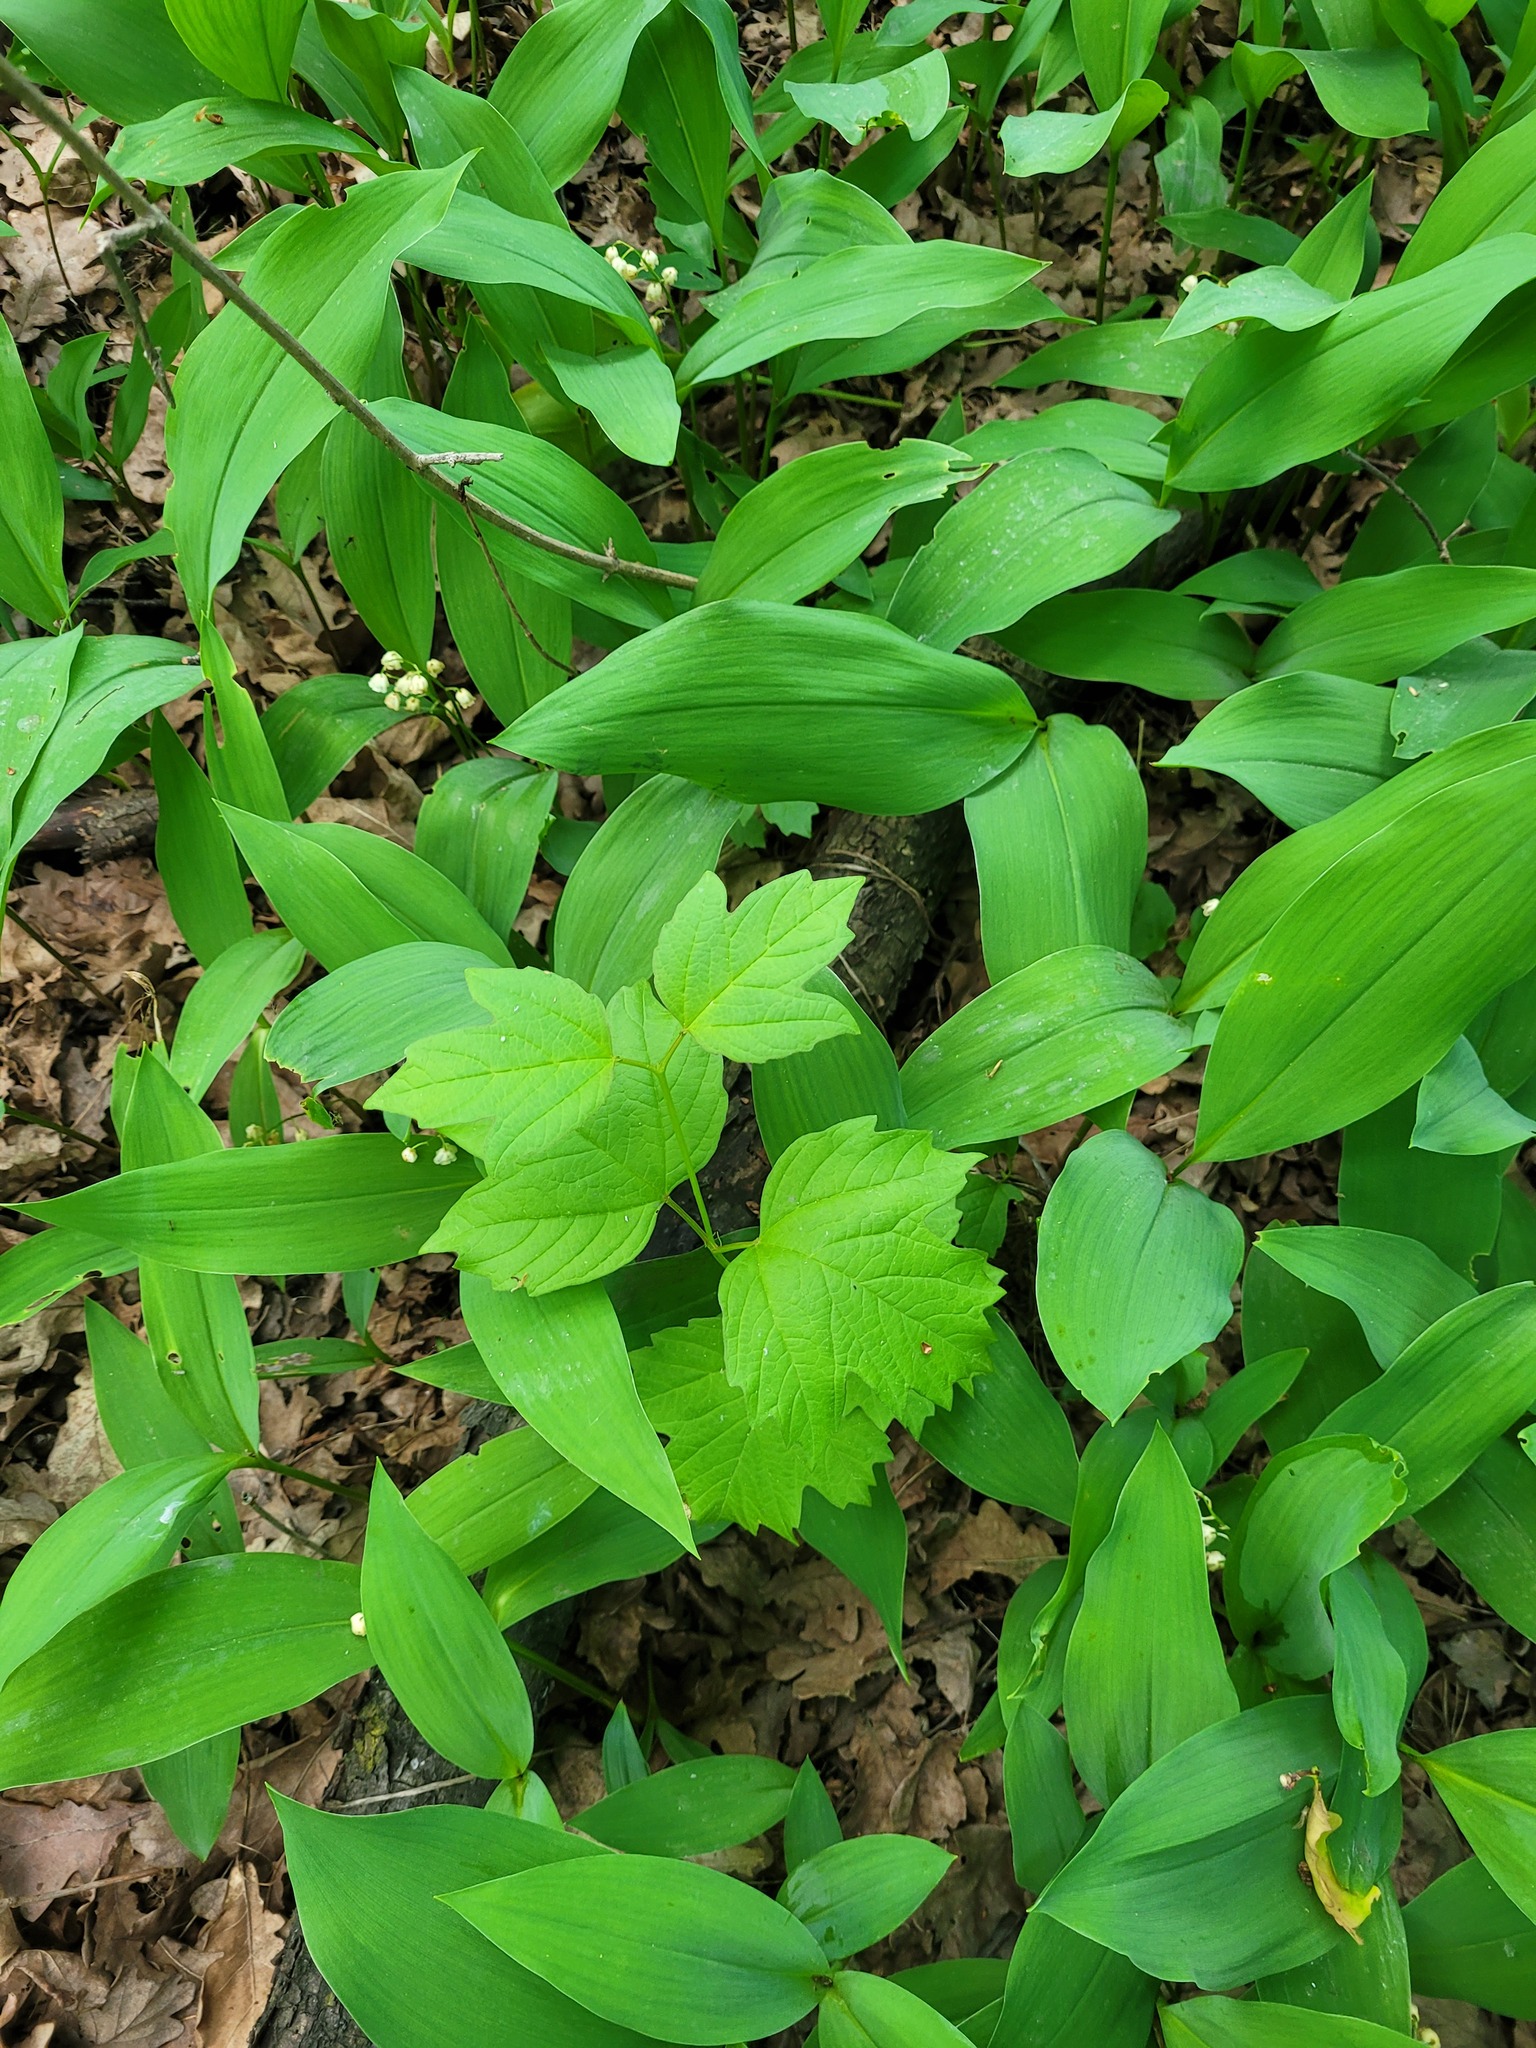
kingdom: Plantae
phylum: Tracheophyta
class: Magnoliopsida
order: Dipsacales
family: Viburnaceae
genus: Viburnum
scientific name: Viburnum opulus
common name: Guelder-rose
